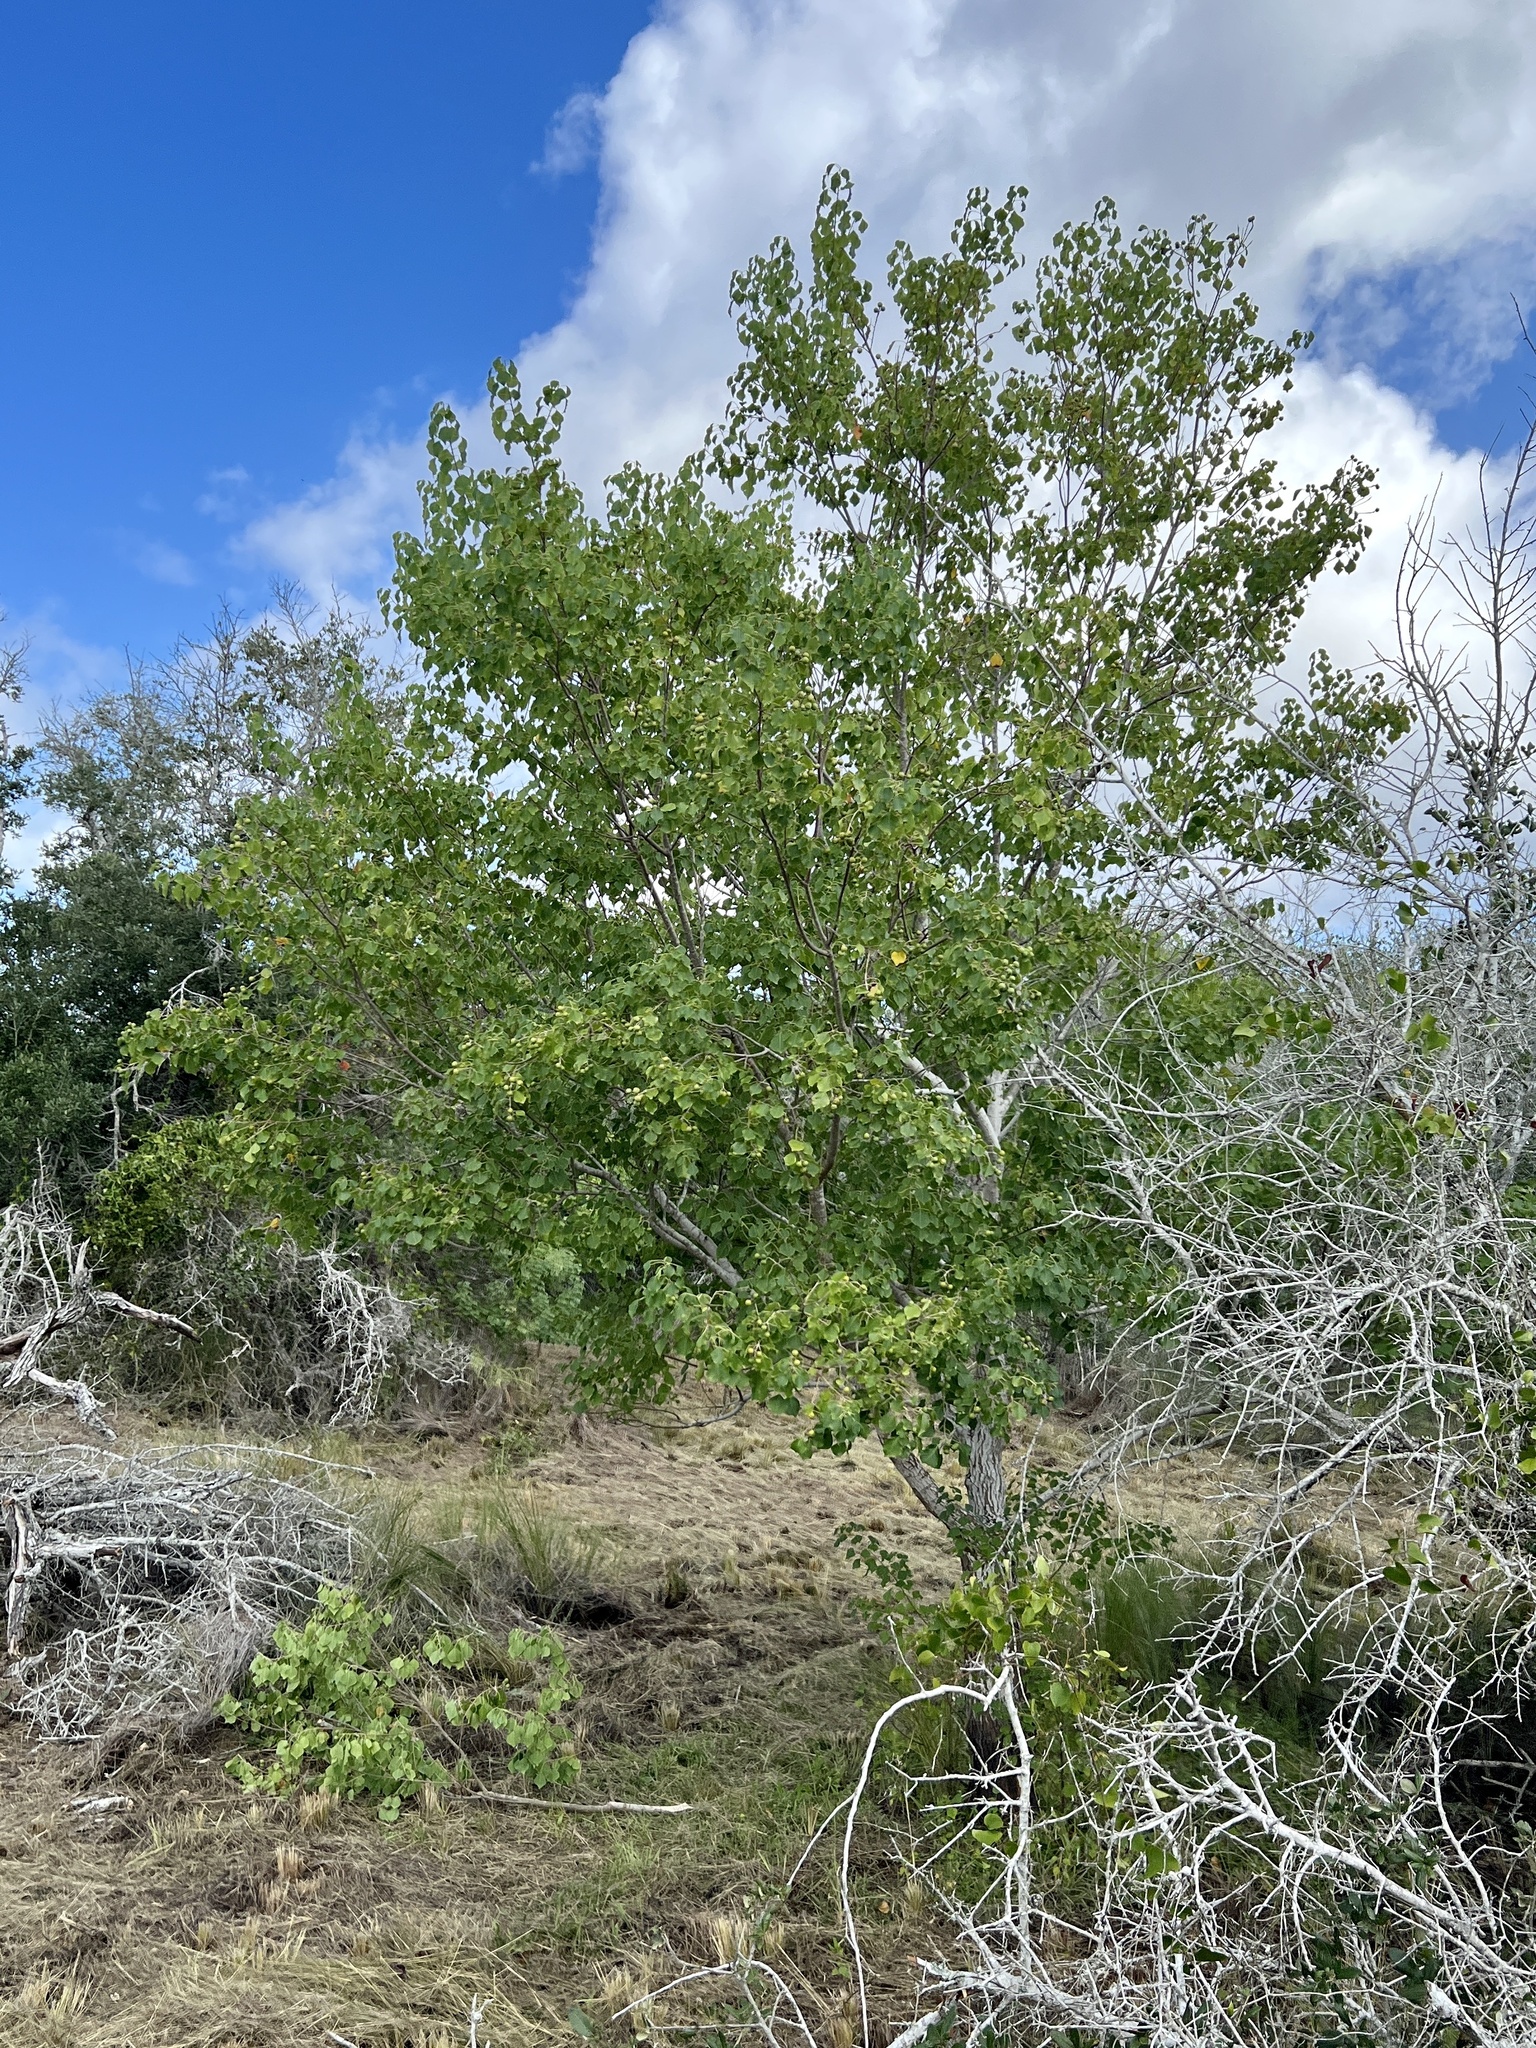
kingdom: Plantae
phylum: Tracheophyta
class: Magnoliopsida
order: Malpighiales
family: Euphorbiaceae
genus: Triadica
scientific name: Triadica sebifera
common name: Chinese tallow
